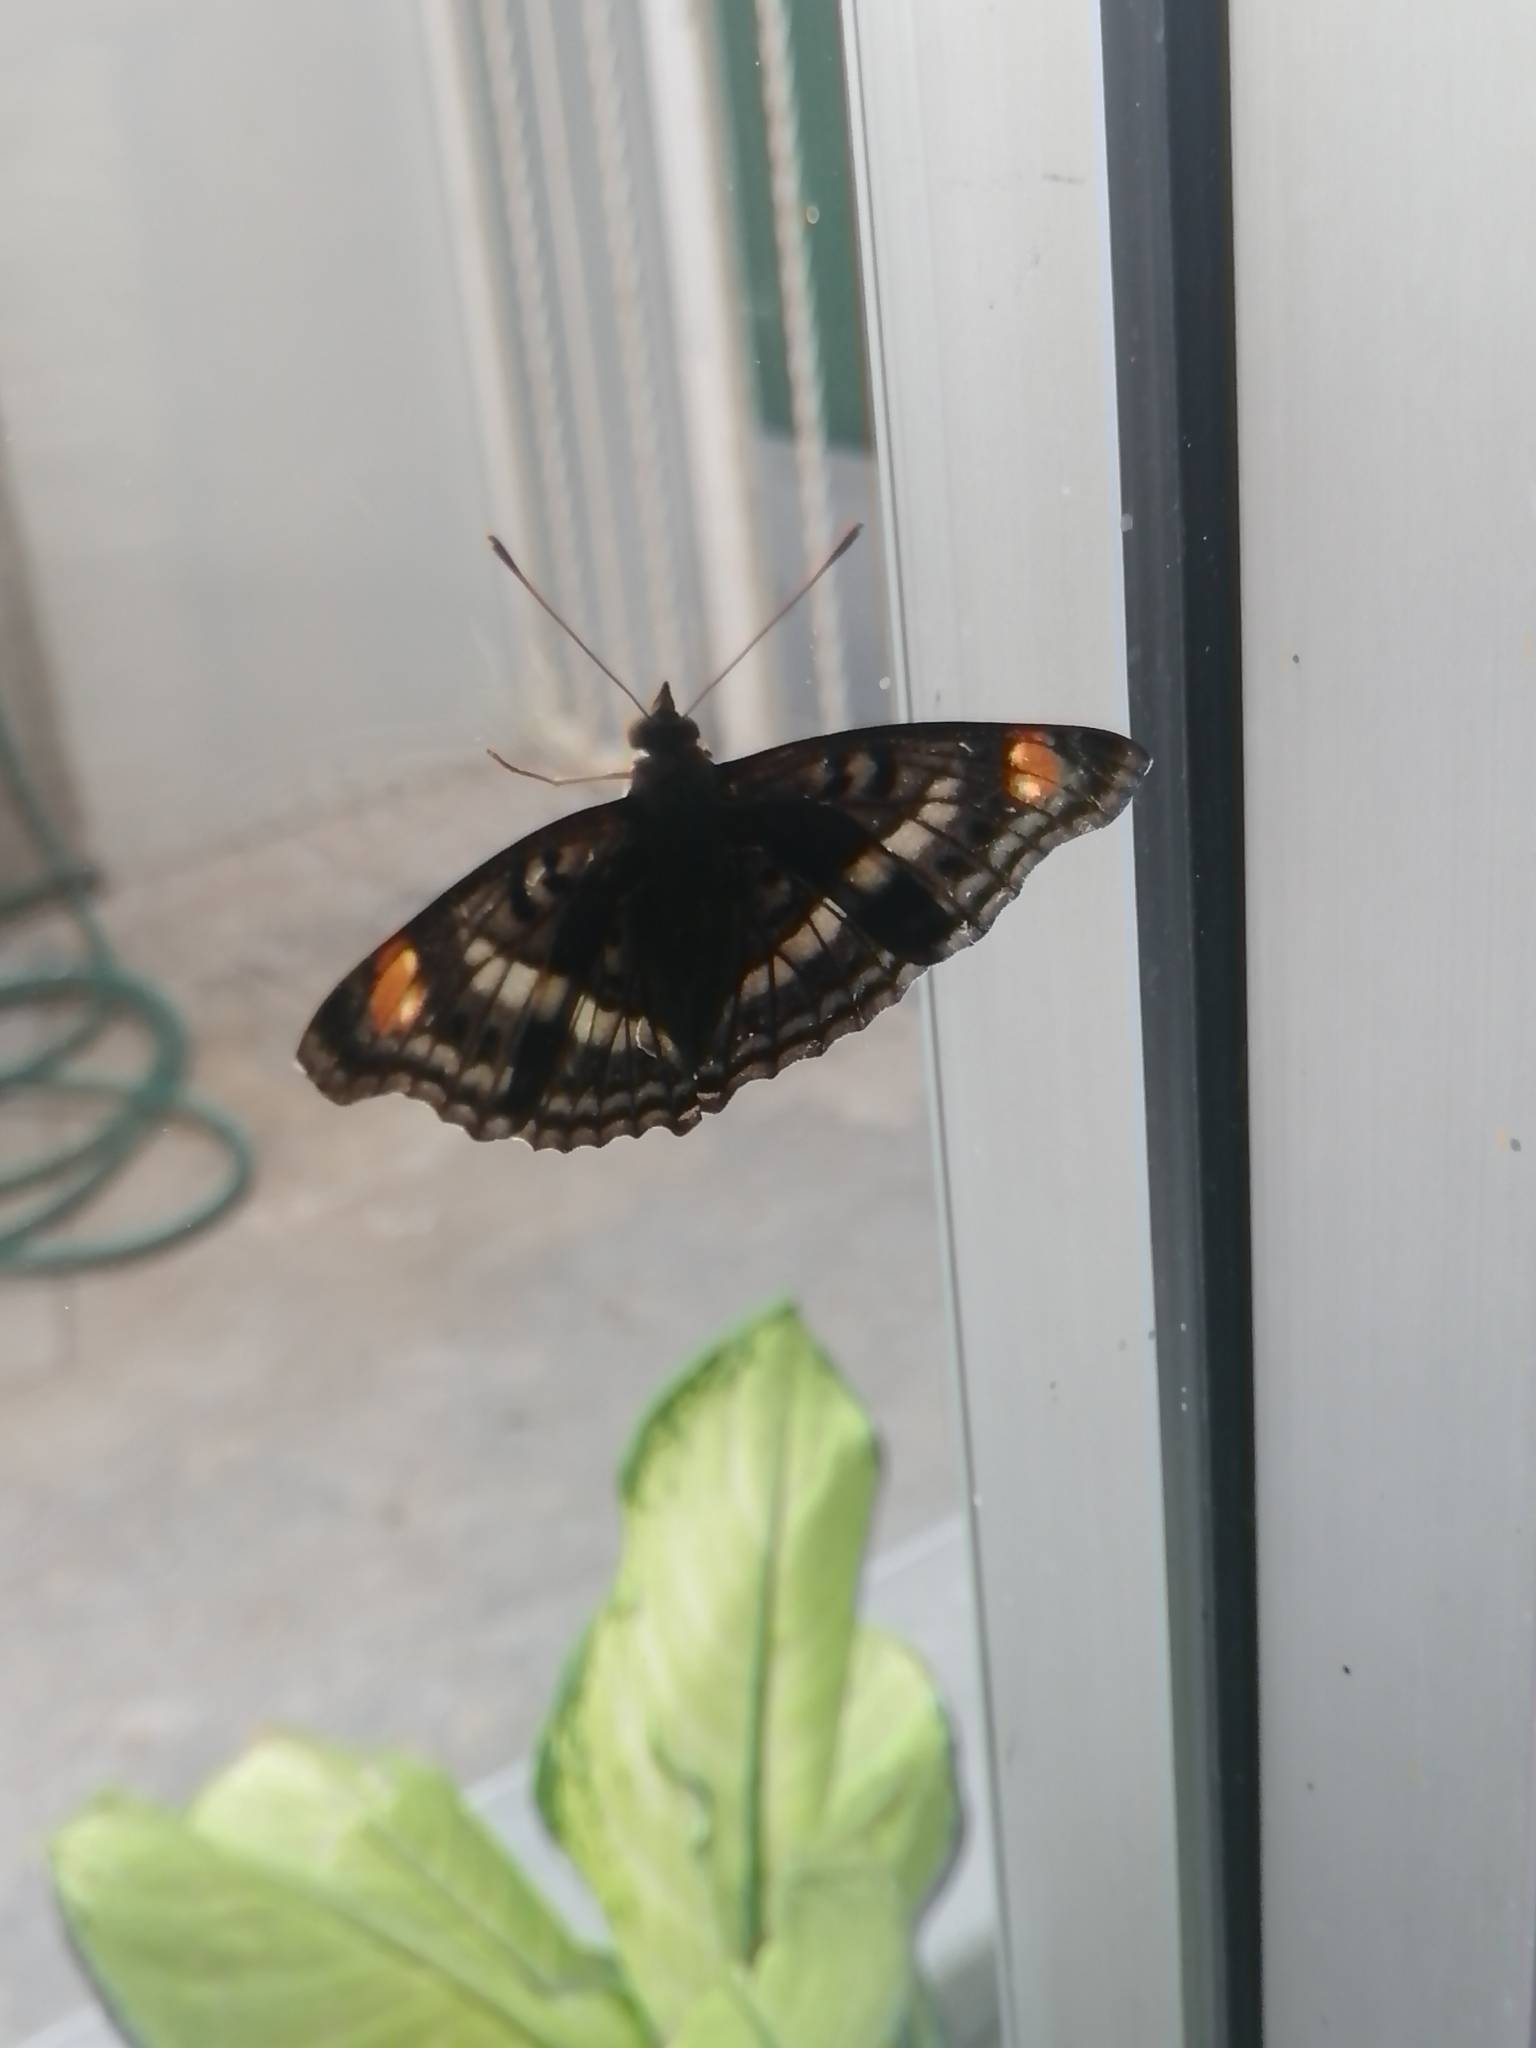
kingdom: Animalia
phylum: Arthropoda
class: Insecta
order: Lepidoptera
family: Nymphalidae
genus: Doxocopa
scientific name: Doxocopa pavonii
